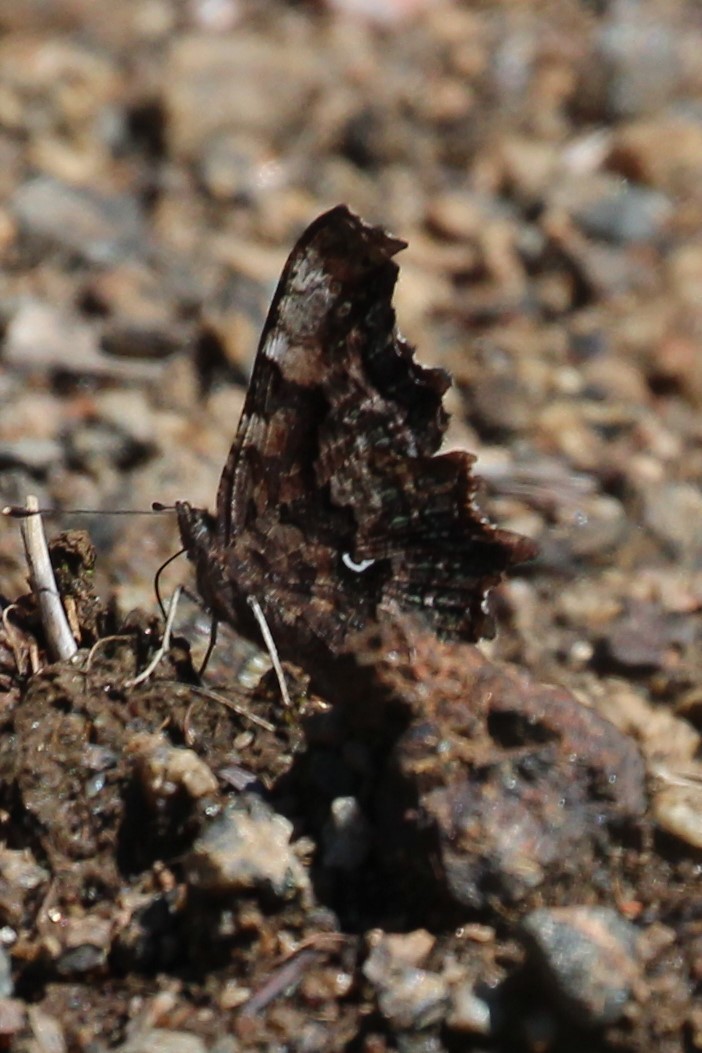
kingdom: Animalia
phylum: Arthropoda
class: Insecta
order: Lepidoptera
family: Nymphalidae
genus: Polygonia
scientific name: Polygonia faunus
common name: Green comma
